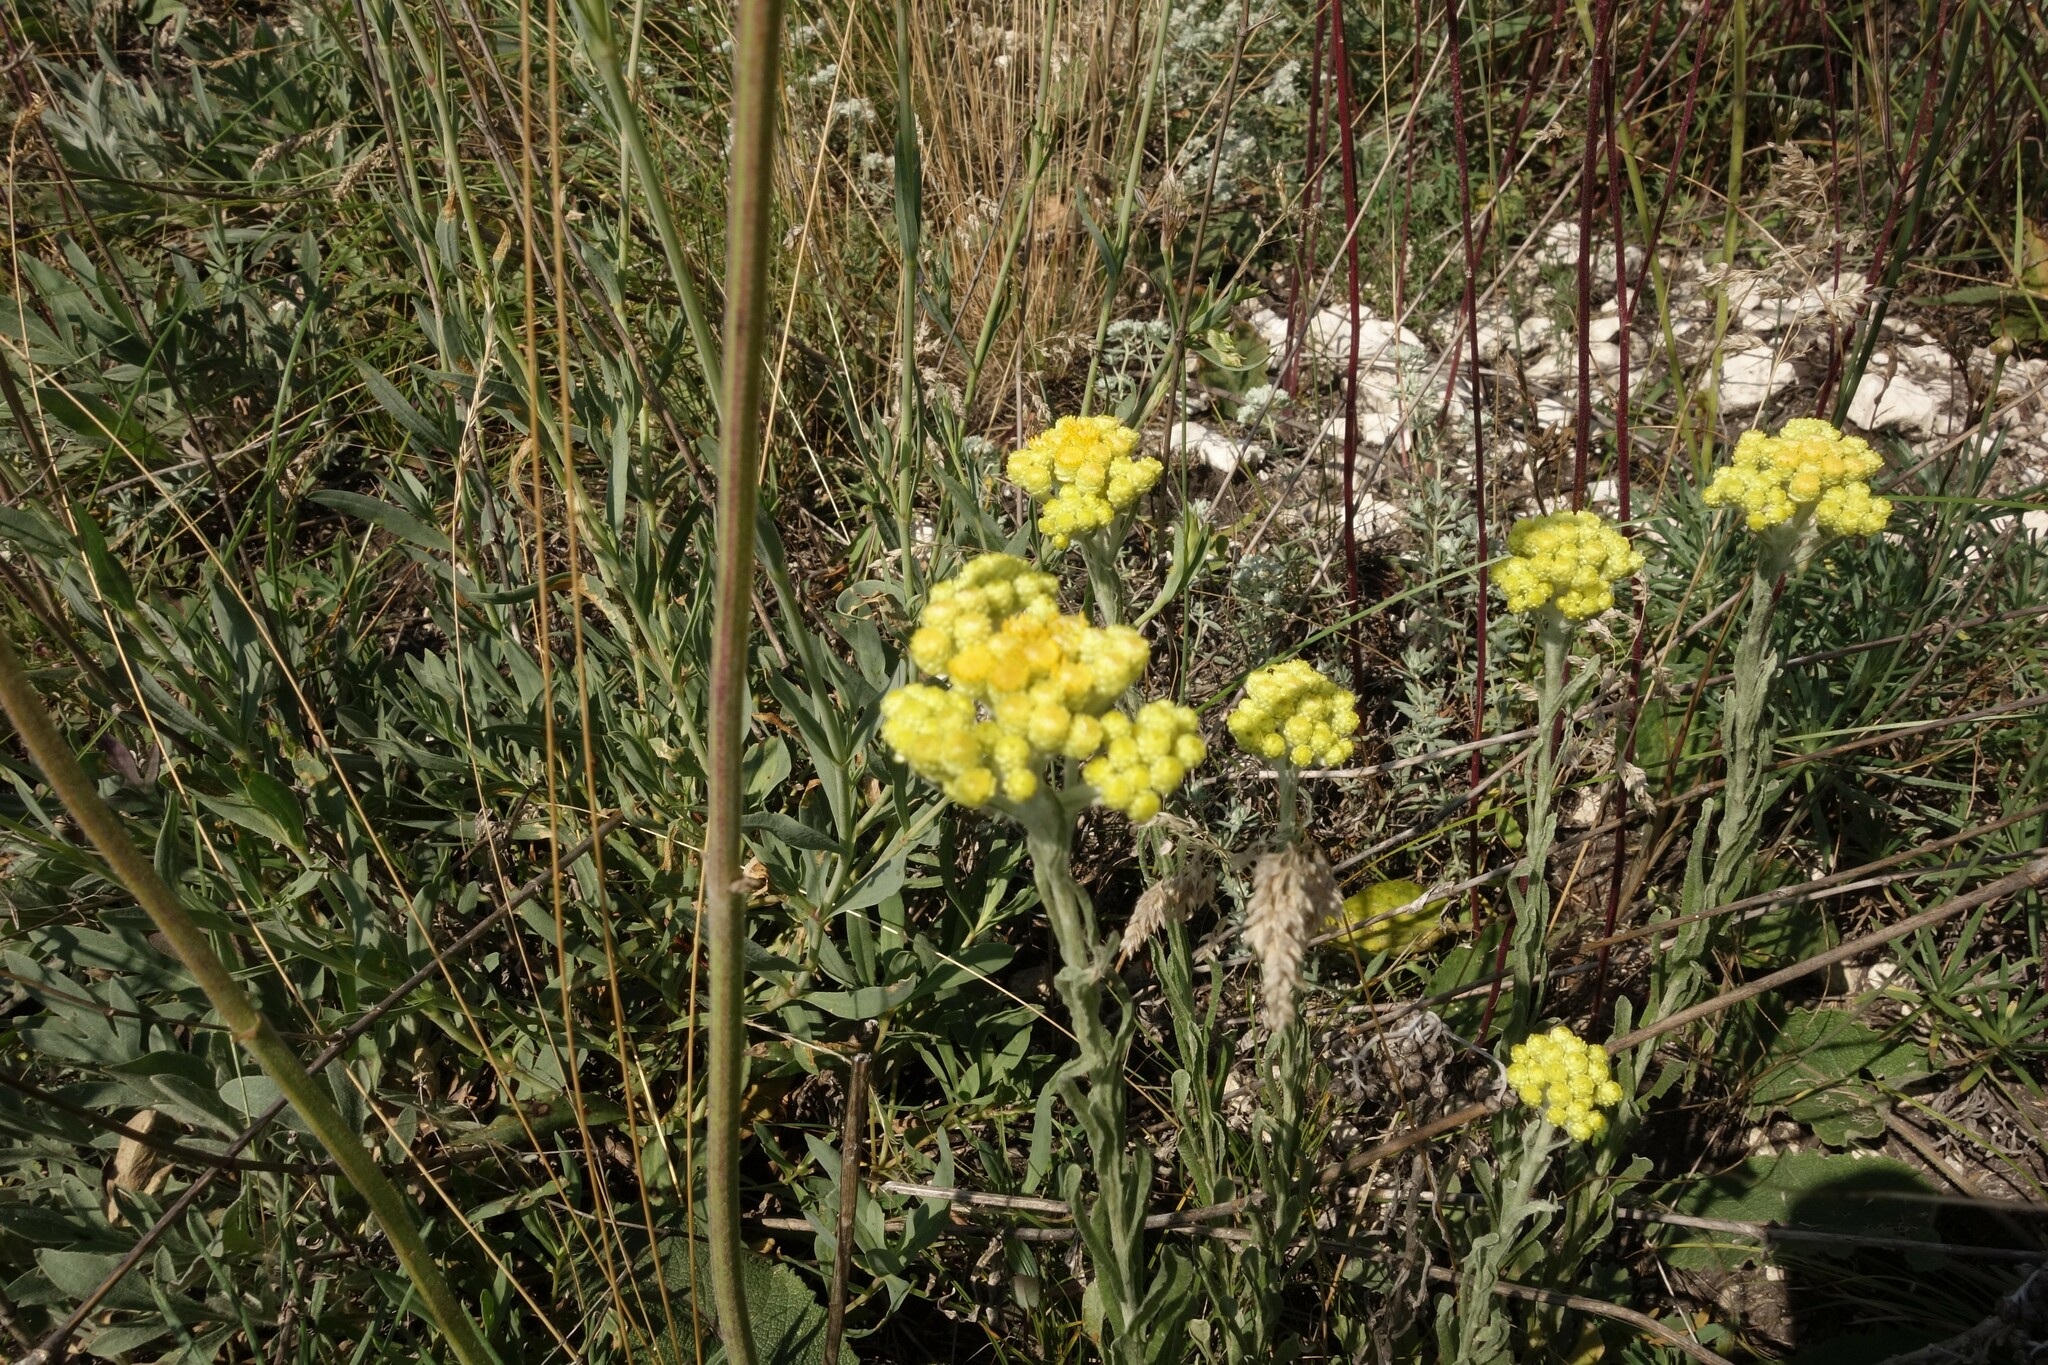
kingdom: Plantae
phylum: Tracheophyta
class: Magnoliopsida
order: Asterales
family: Asteraceae
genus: Helichrysum
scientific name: Helichrysum arenarium
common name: Strawflower
